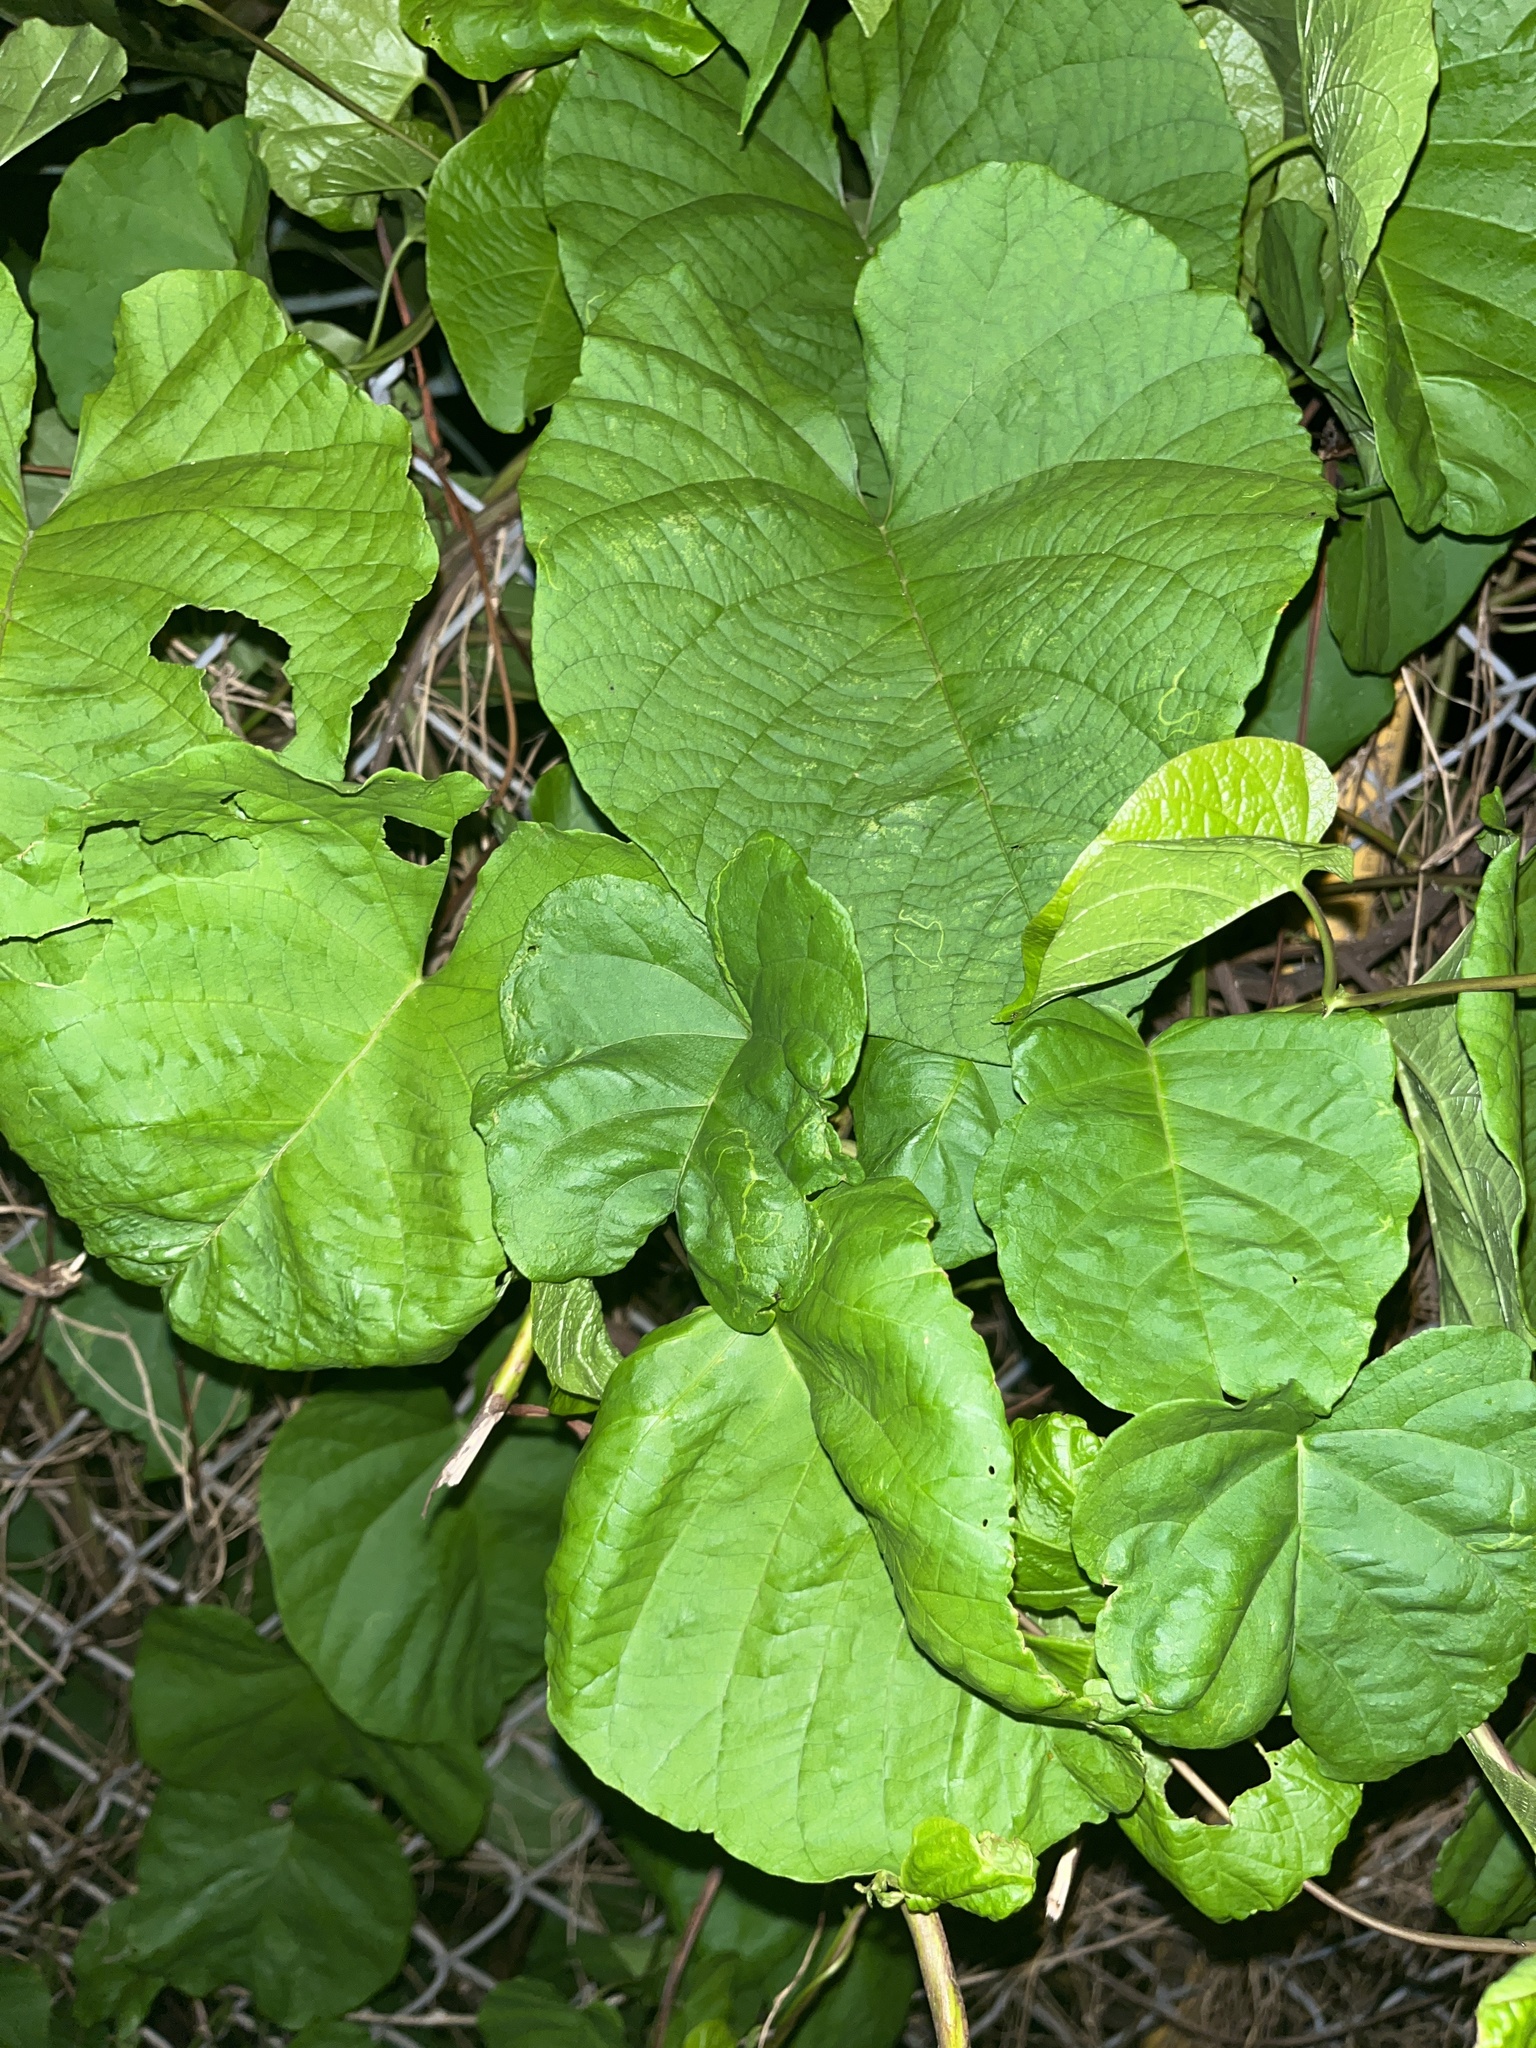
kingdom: Plantae
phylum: Tracheophyta
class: Magnoliopsida
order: Solanales
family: Convolvulaceae
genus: Camonea
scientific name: Camonea umbellata
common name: Hogvine
